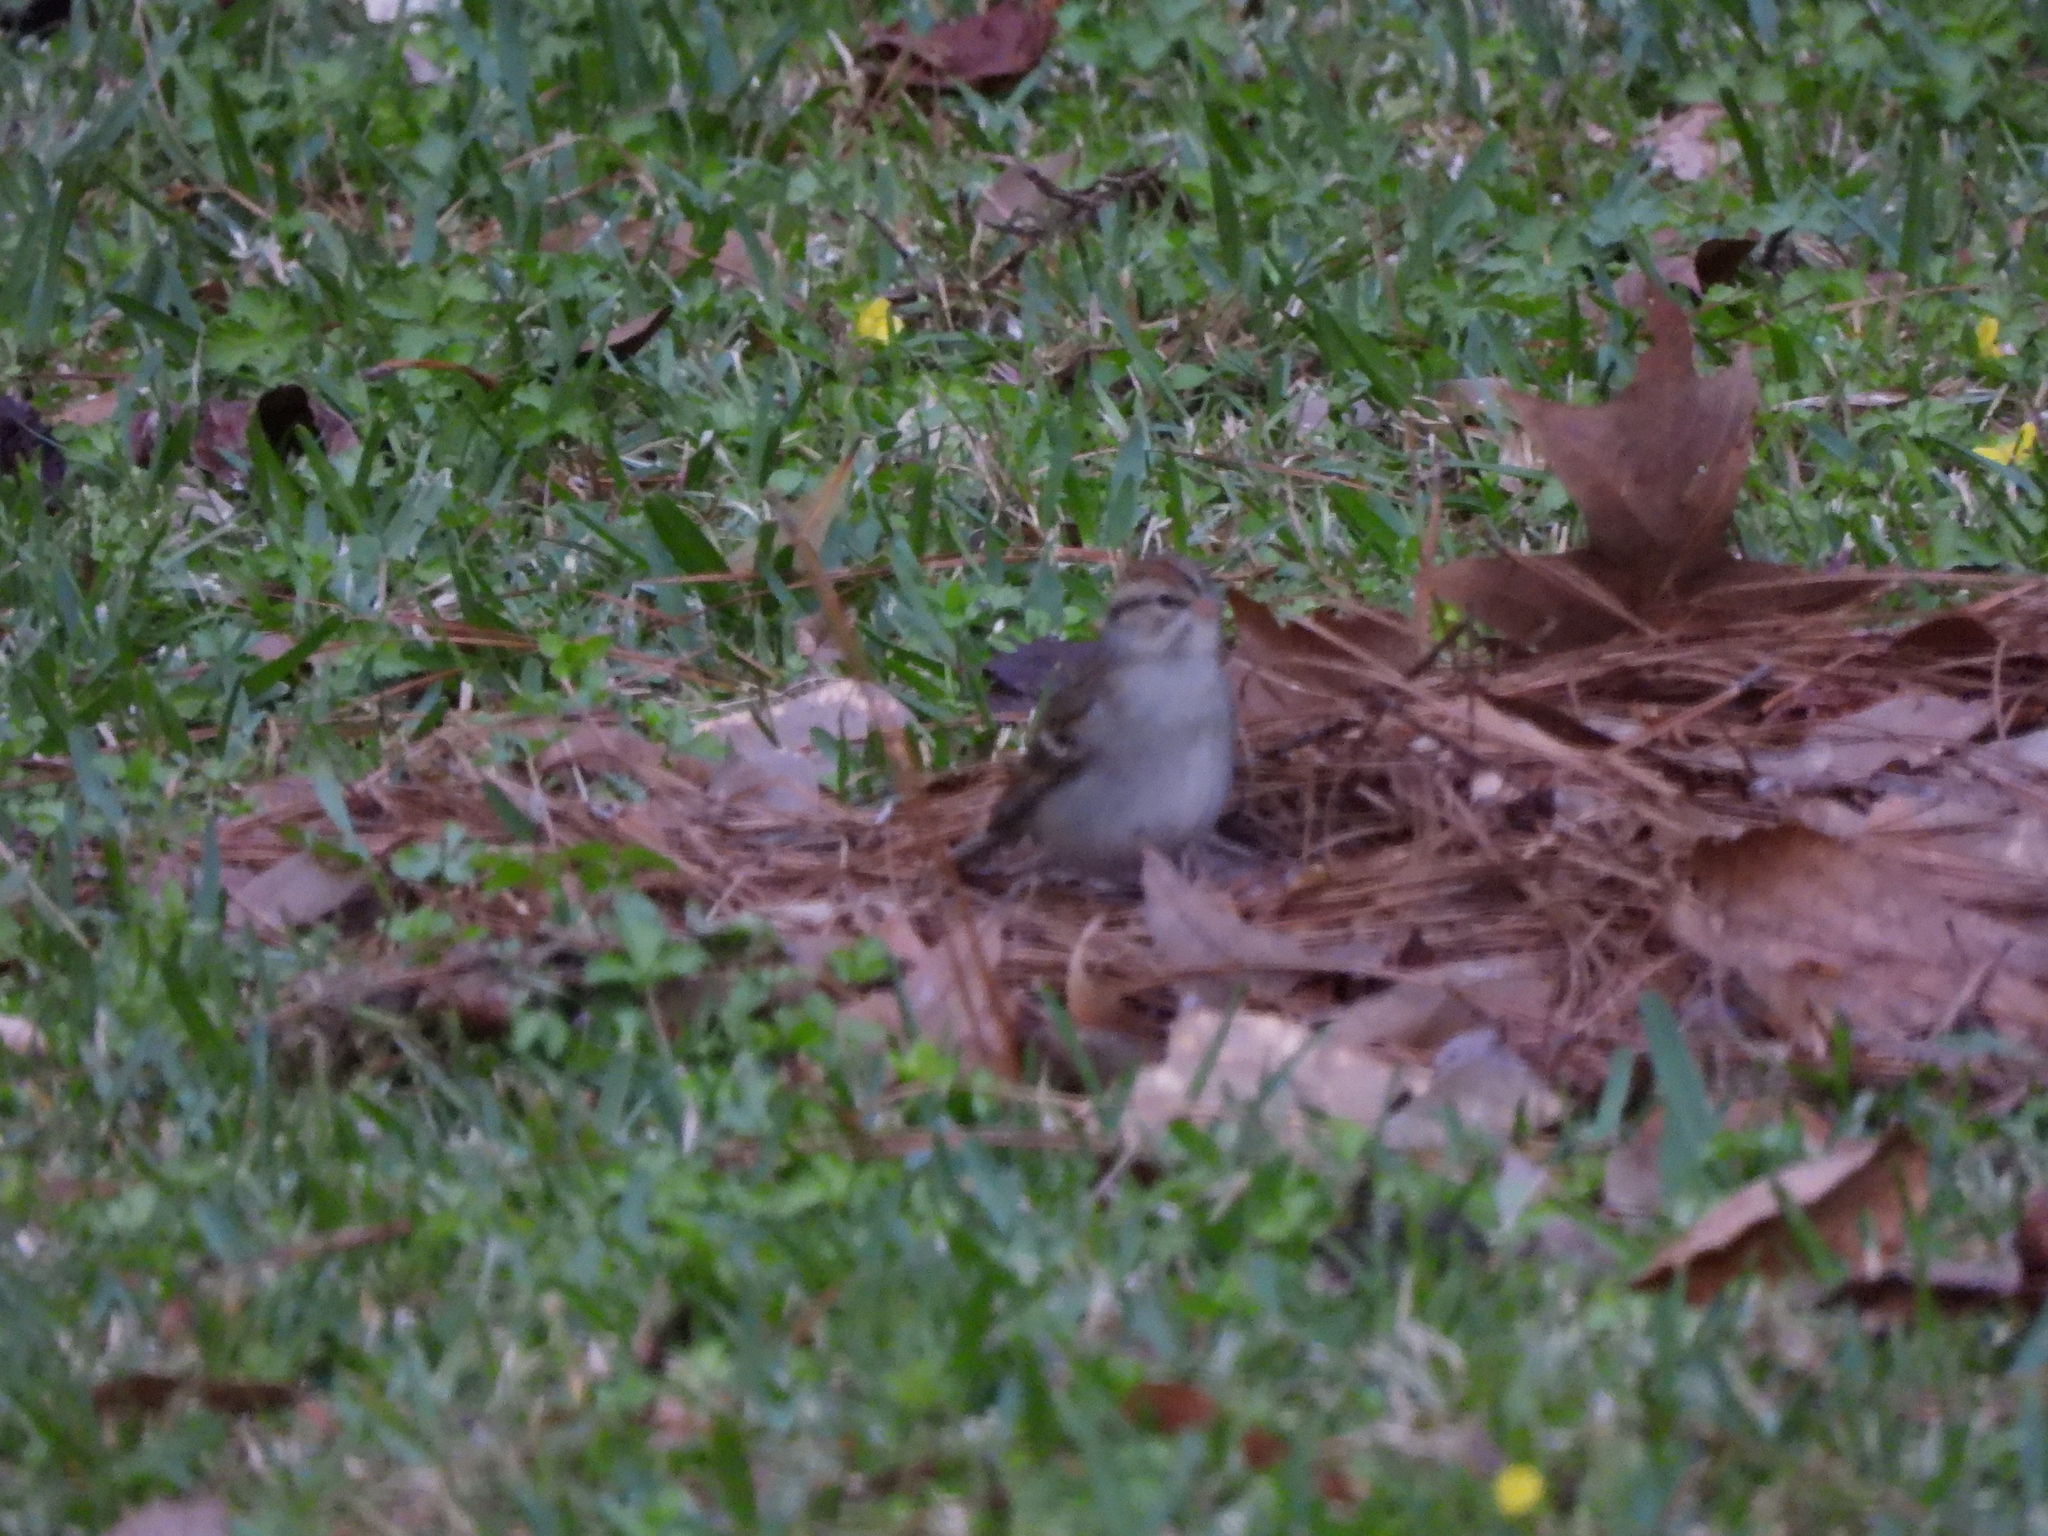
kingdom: Animalia
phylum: Chordata
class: Aves
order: Passeriformes
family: Passerellidae
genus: Spizella
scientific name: Spizella passerina
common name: Chipping sparrow
